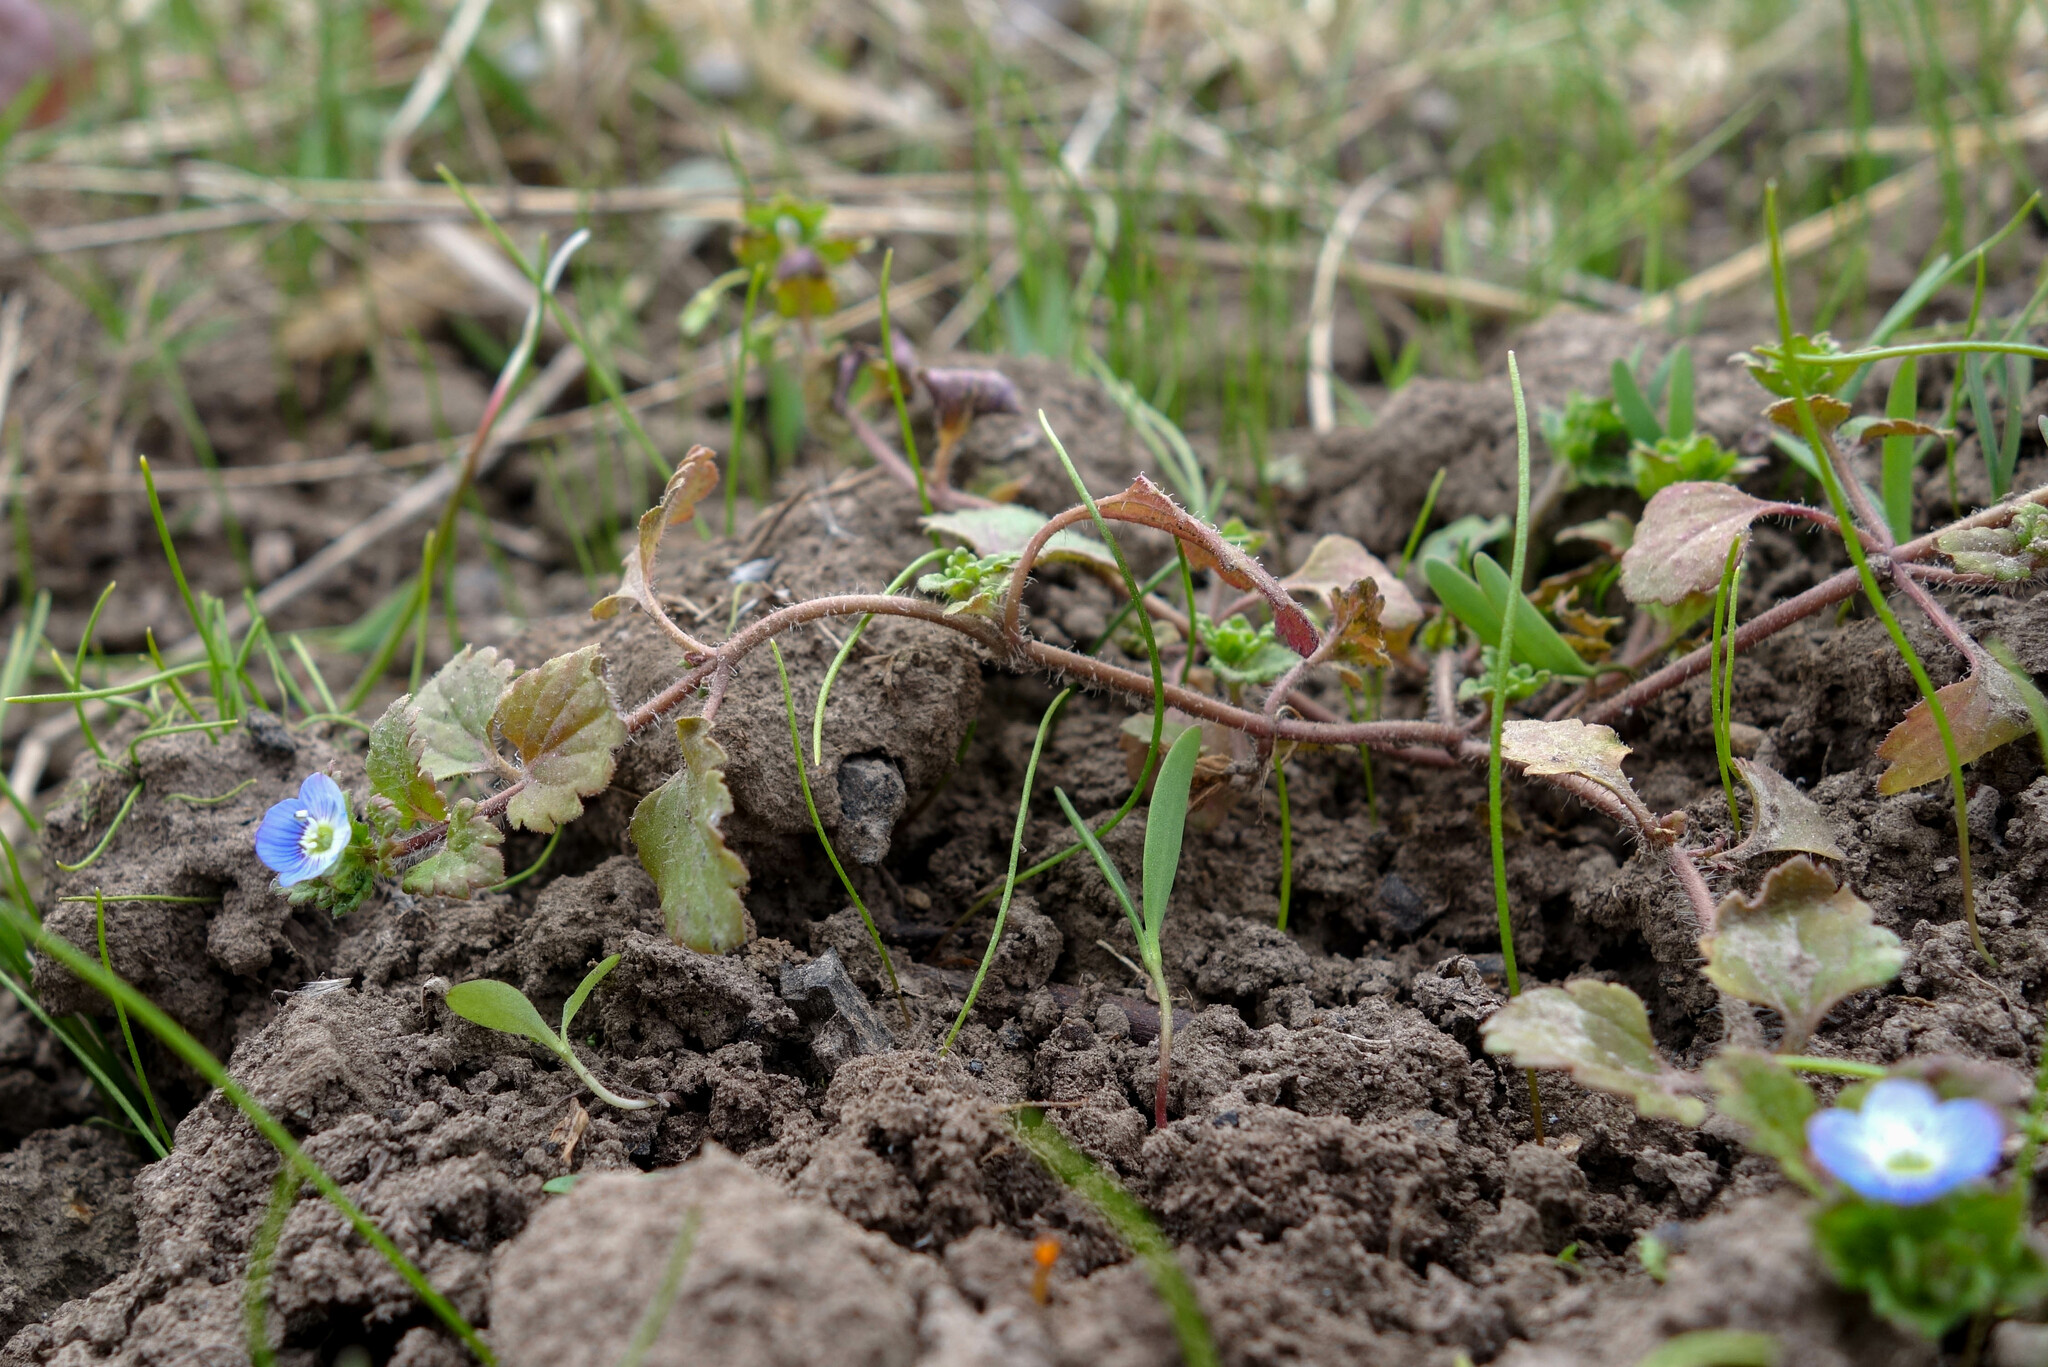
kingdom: Plantae
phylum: Tracheophyta
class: Magnoliopsida
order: Lamiales
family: Plantaginaceae
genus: Veronica
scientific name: Veronica persica
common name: Common field-speedwell
